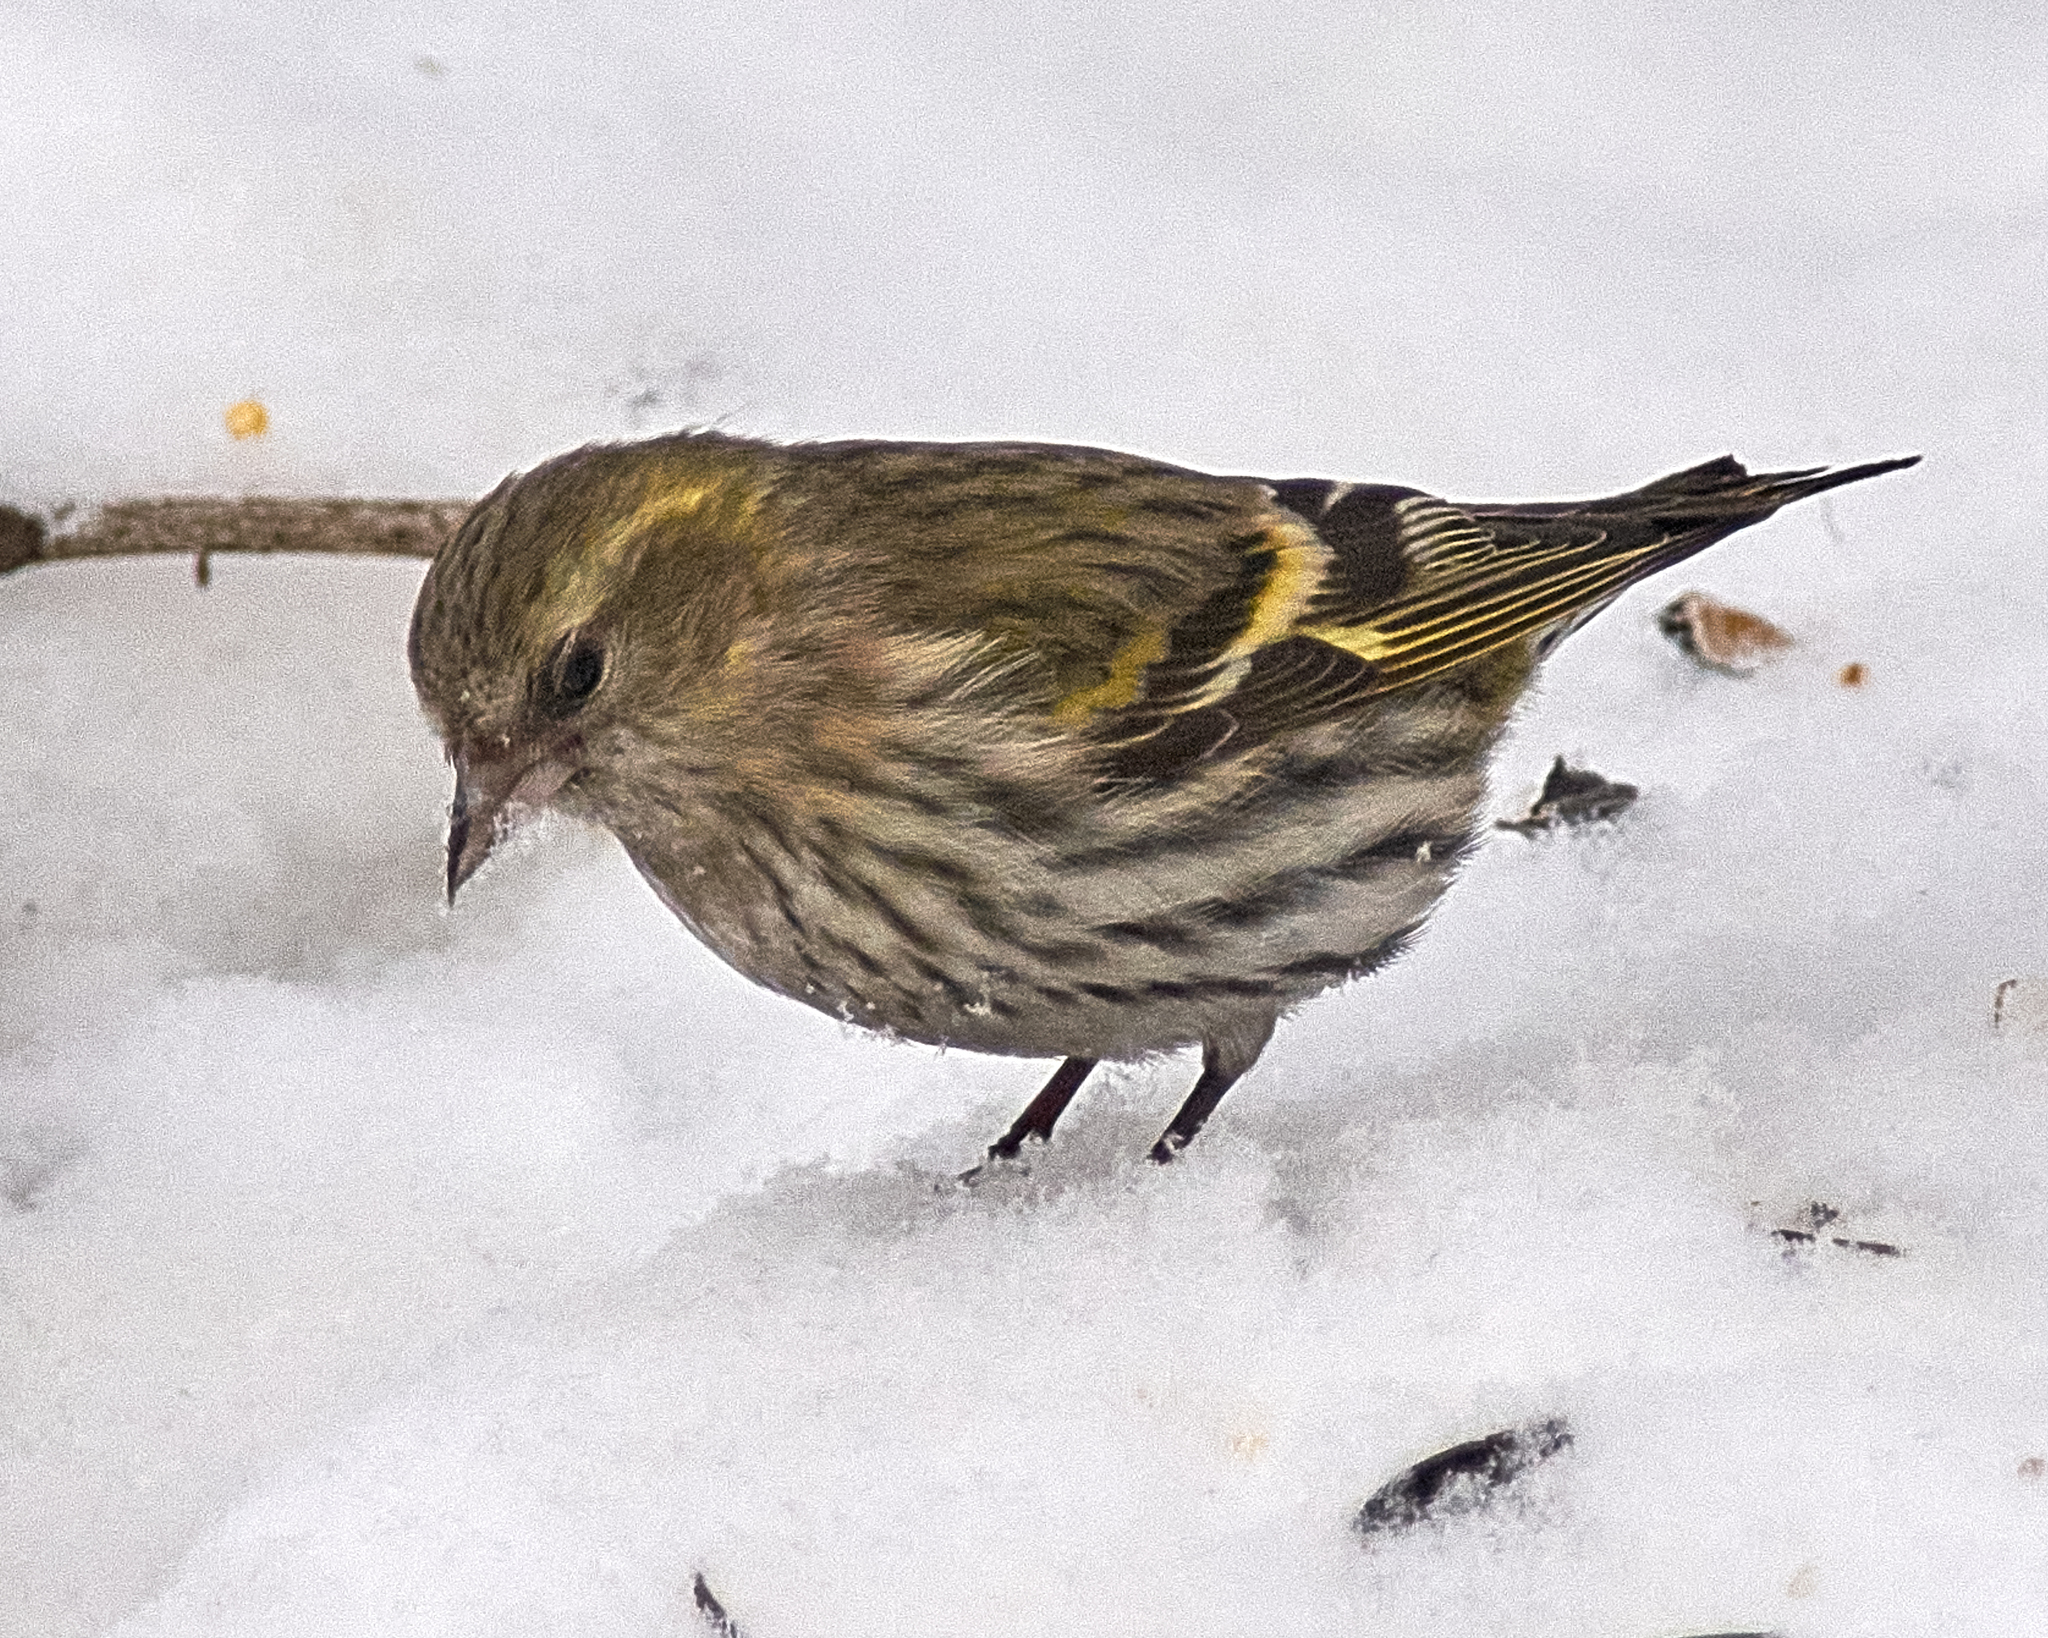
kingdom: Animalia
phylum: Chordata
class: Aves
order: Passeriformes
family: Fringillidae
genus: Spinus
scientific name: Spinus spinus
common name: Eurasian siskin
